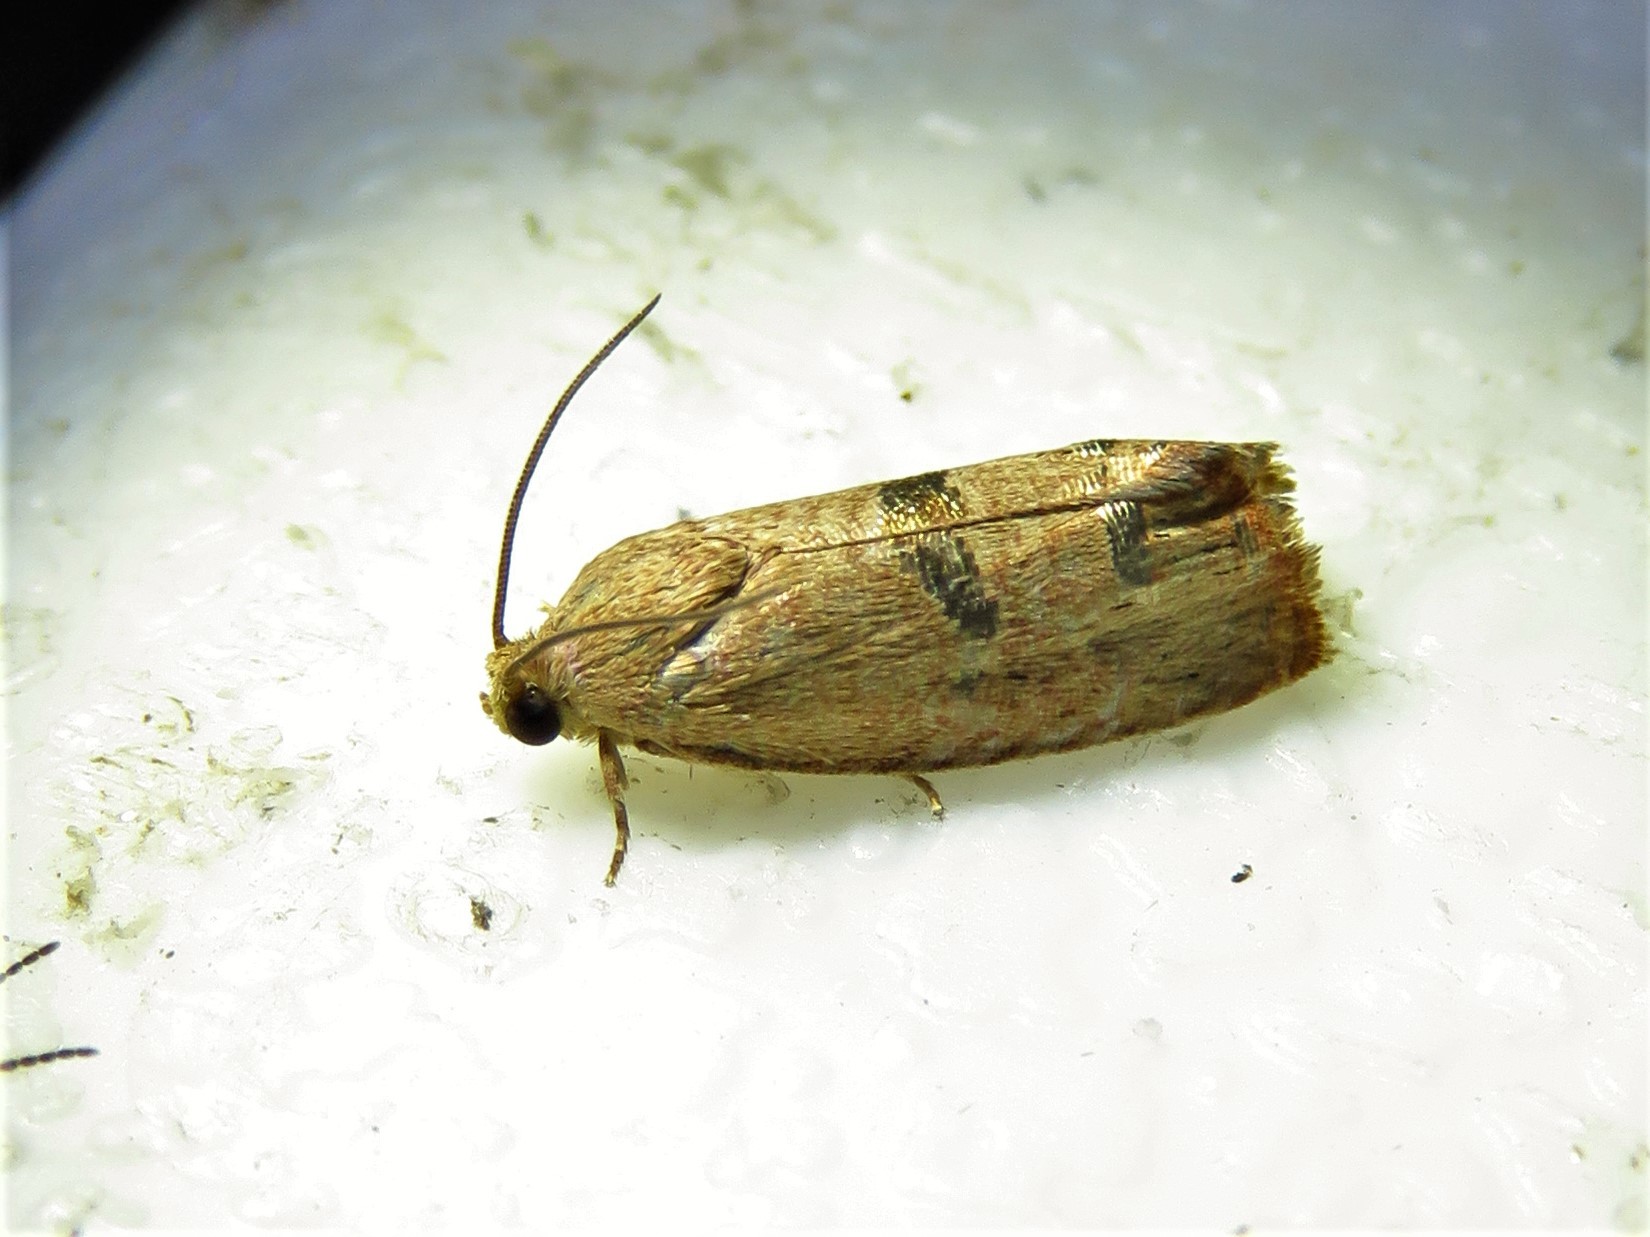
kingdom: Animalia
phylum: Arthropoda
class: Insecta
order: Lepidoptera
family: Tortricidae
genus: Cydia
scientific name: Cydia latiferreana
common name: Filbertworm moth
